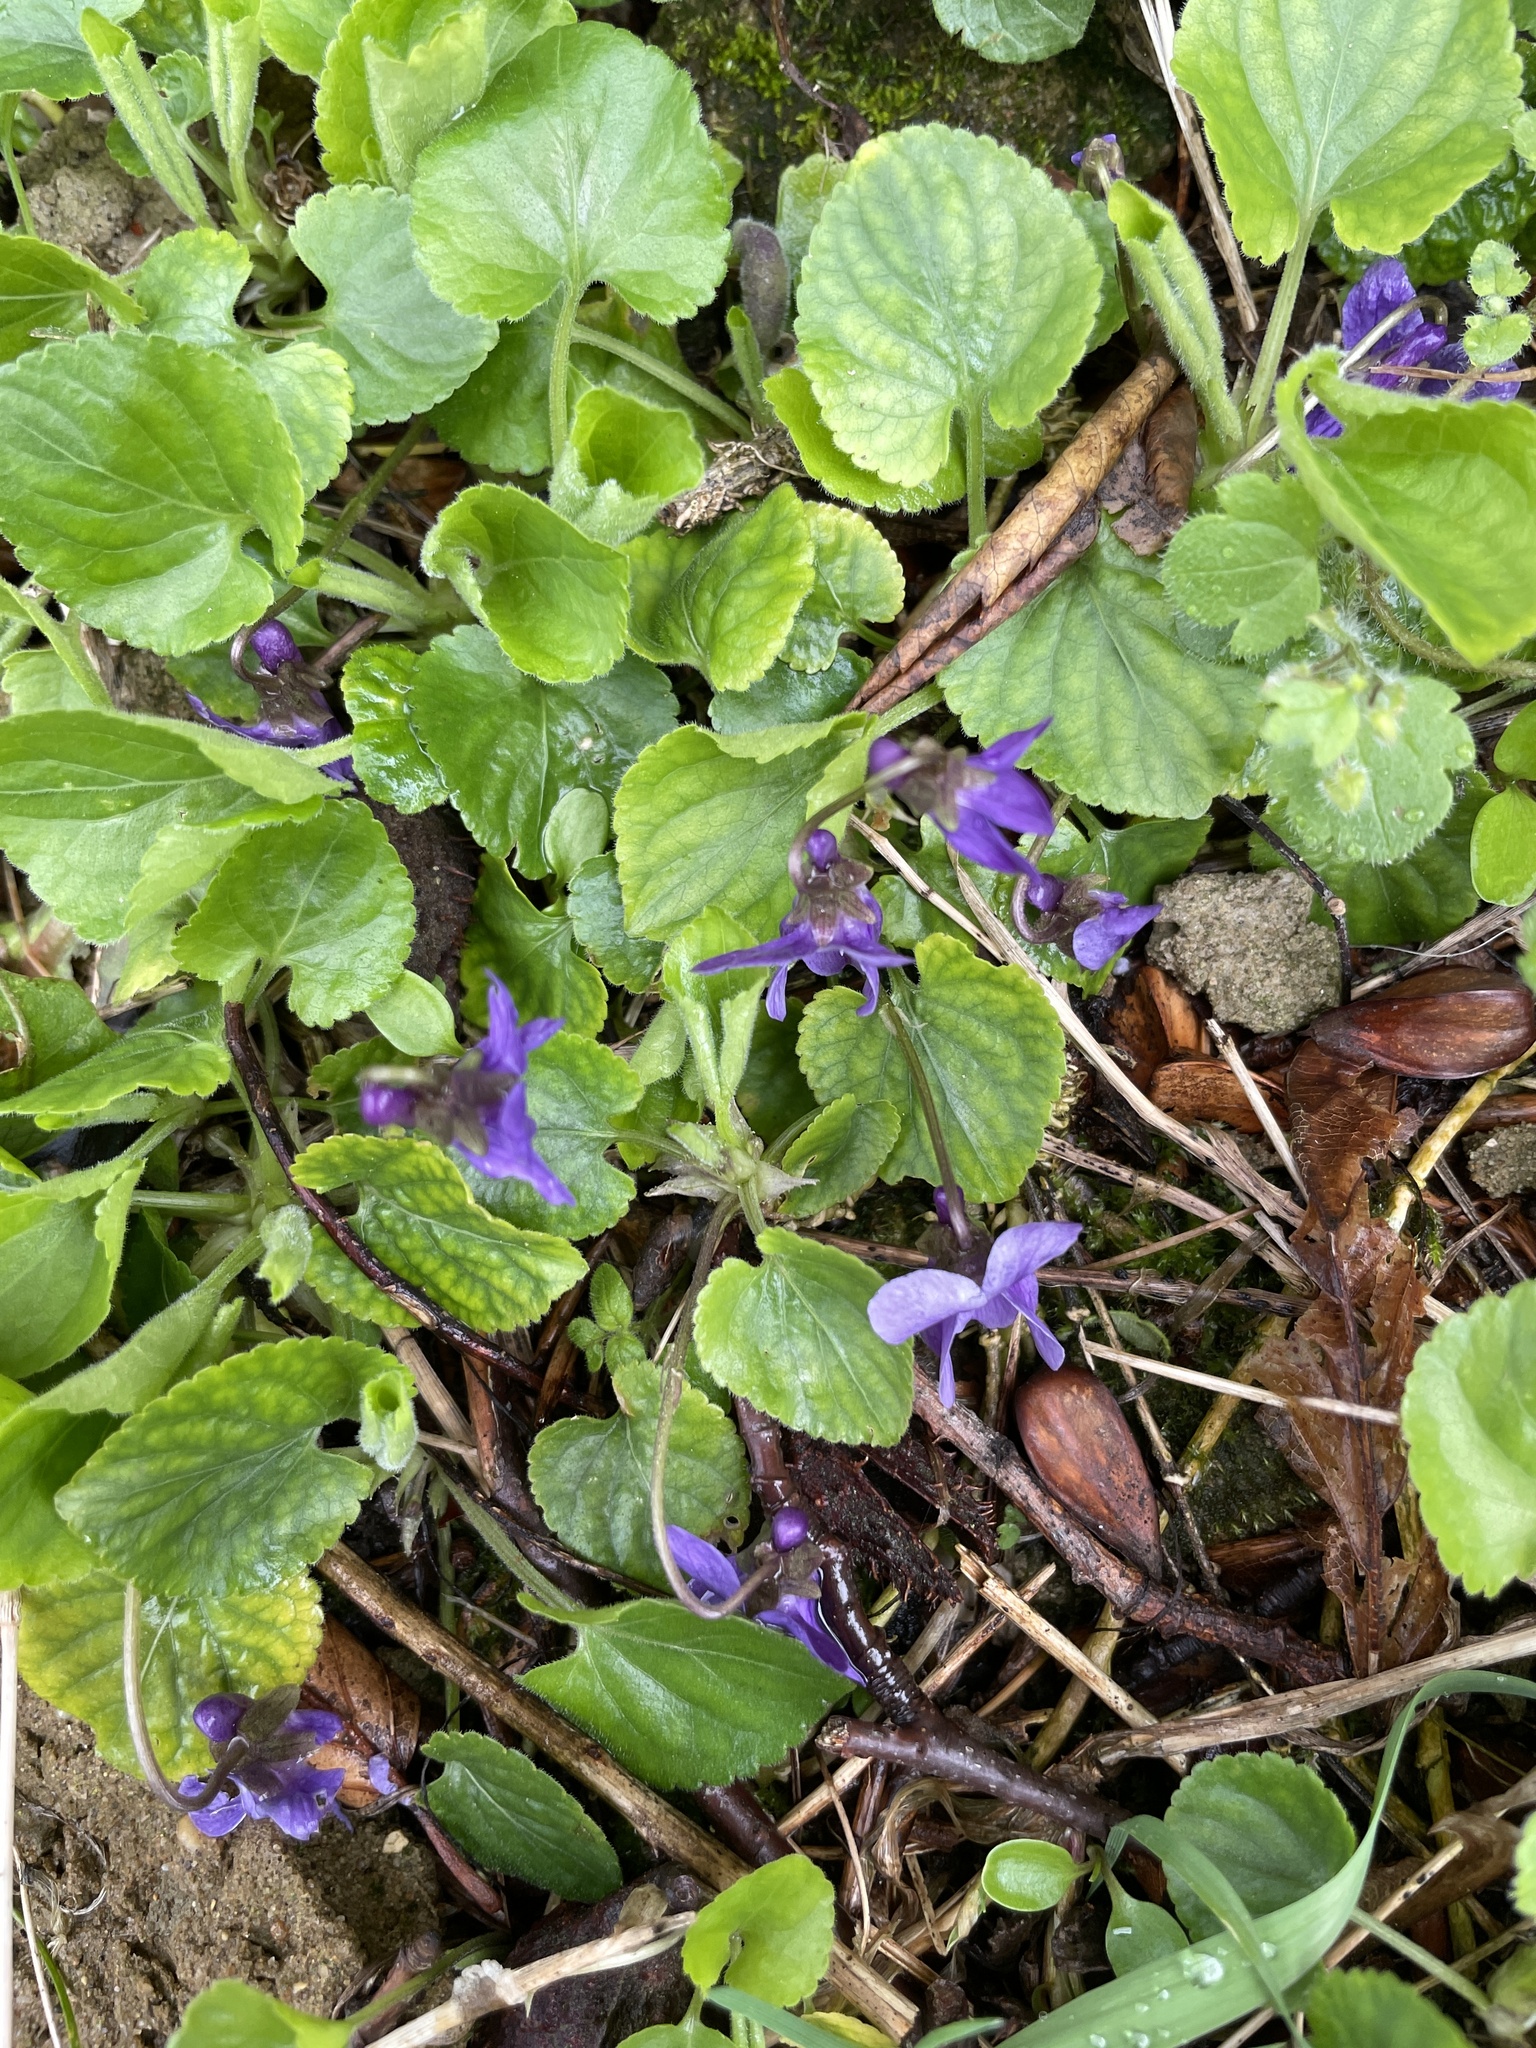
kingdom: Plantae
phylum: Tracheophyta
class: Magnoliopsida
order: Malpighiales
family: Violaceae
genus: Viola
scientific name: Viola odorata
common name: Sweet violet
